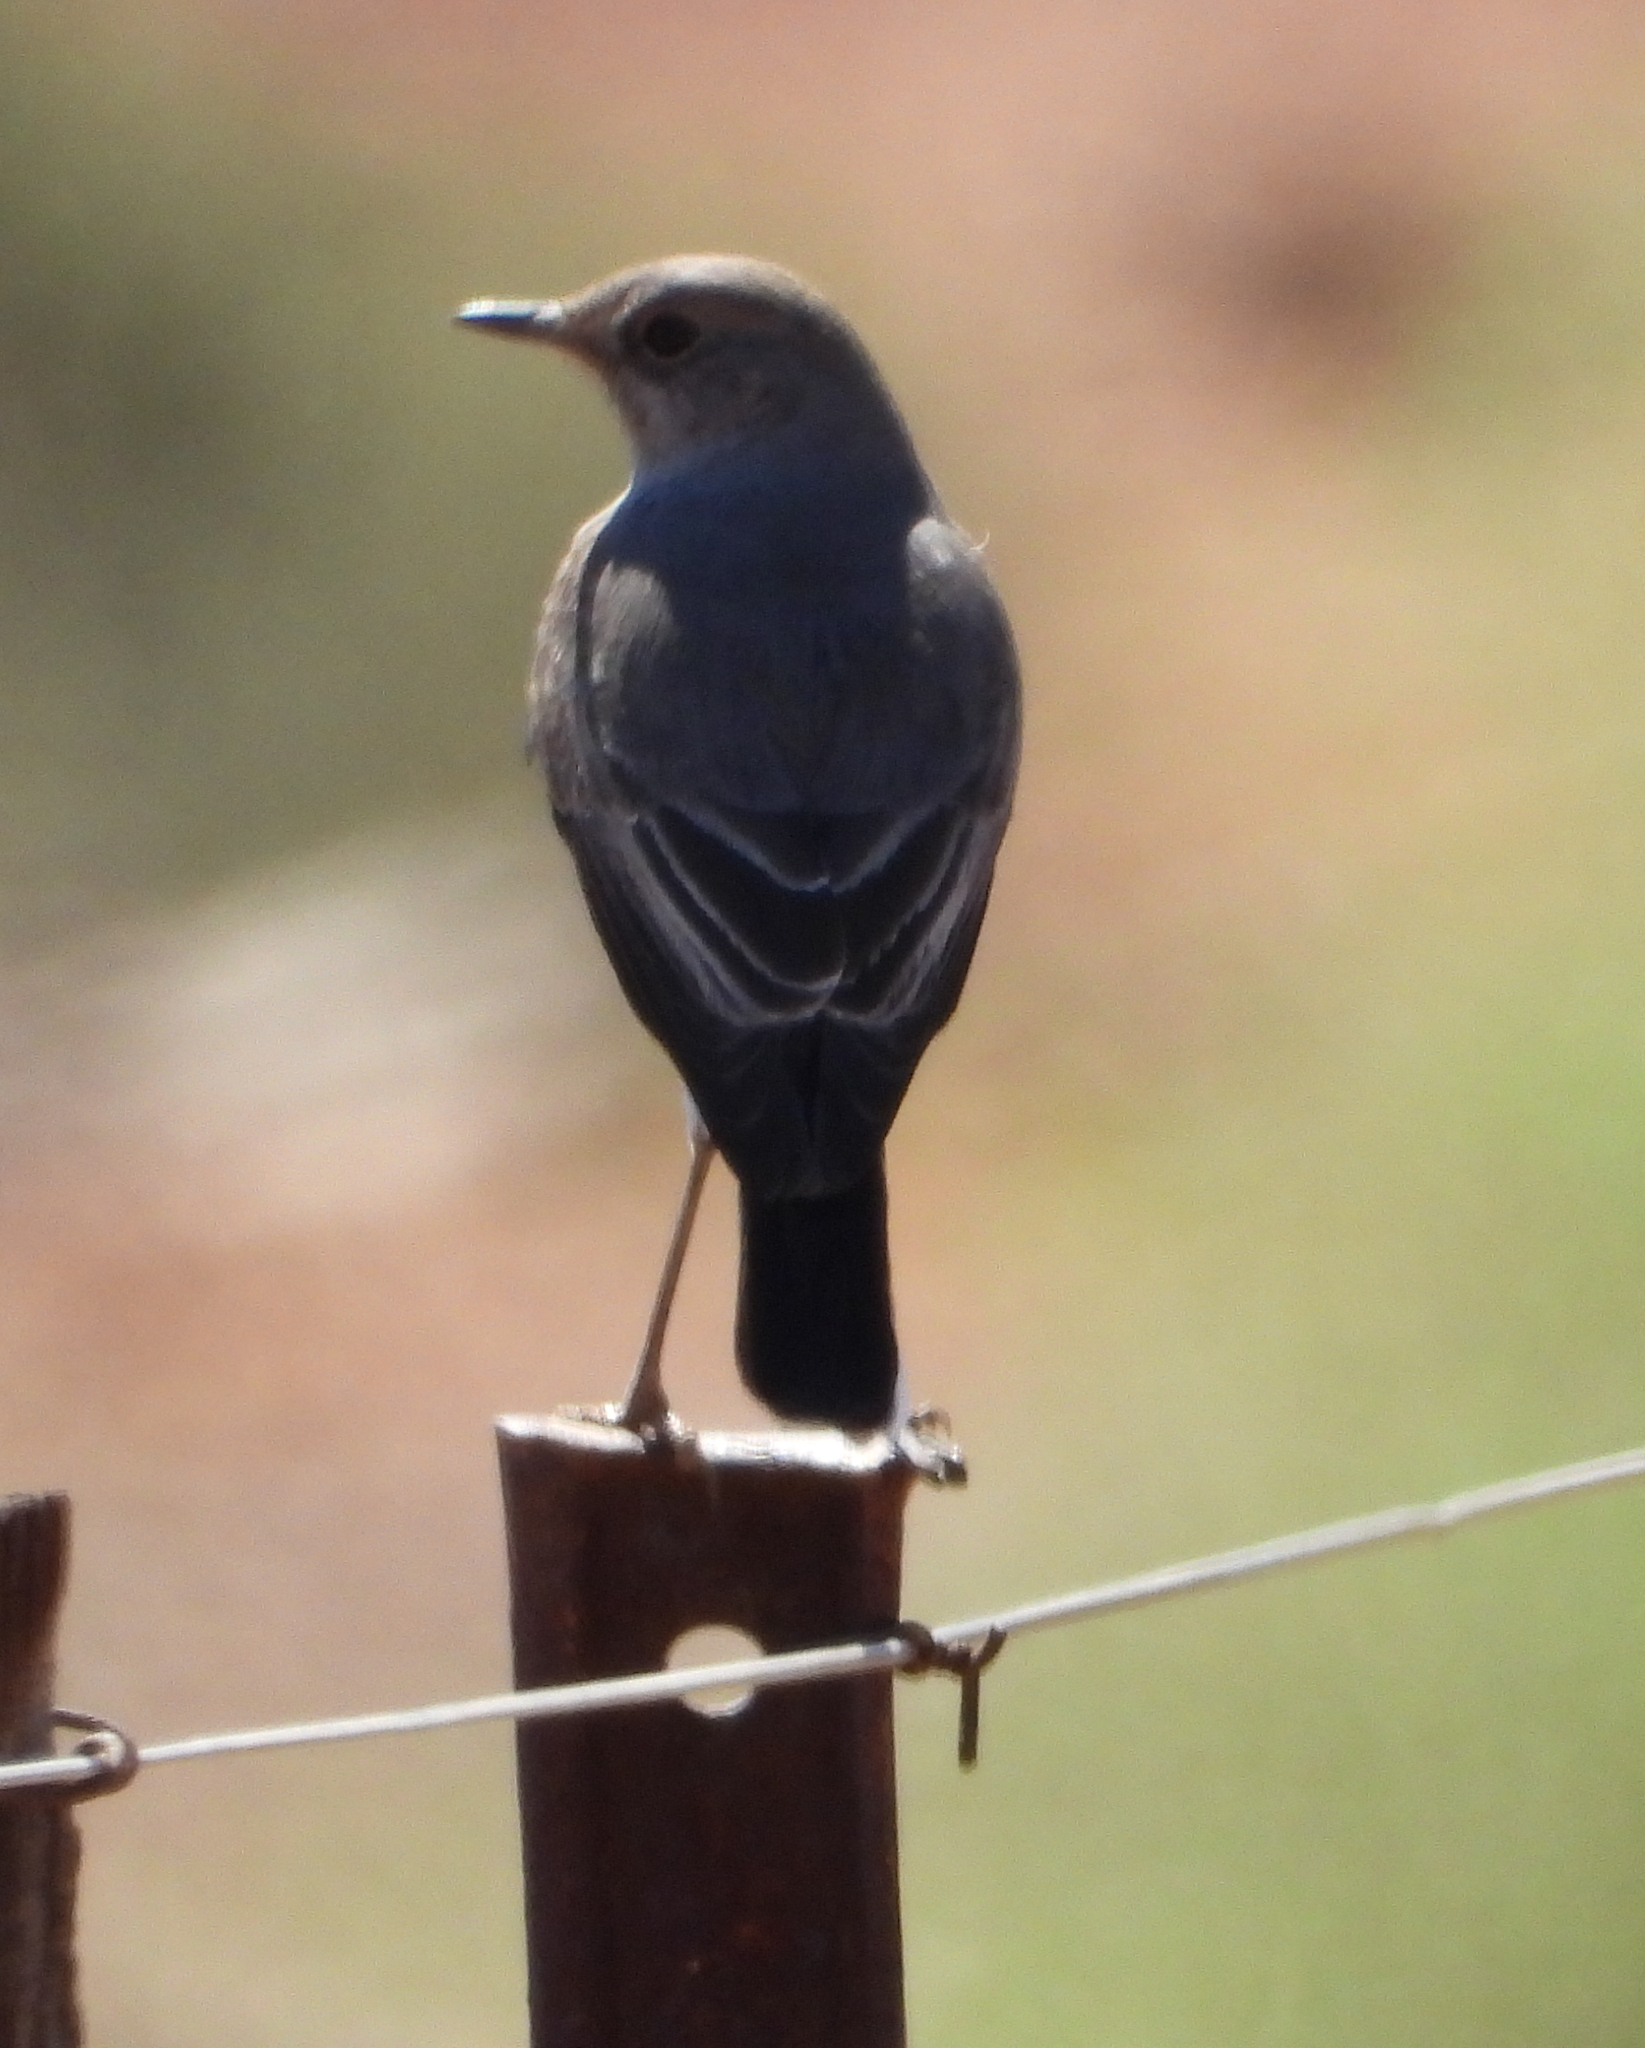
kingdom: Animalia
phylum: Chordata
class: Aves
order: Passeriformes
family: Muscicapidae
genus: Emarginata
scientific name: Emarginata schlegelii
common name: Karoo chat
